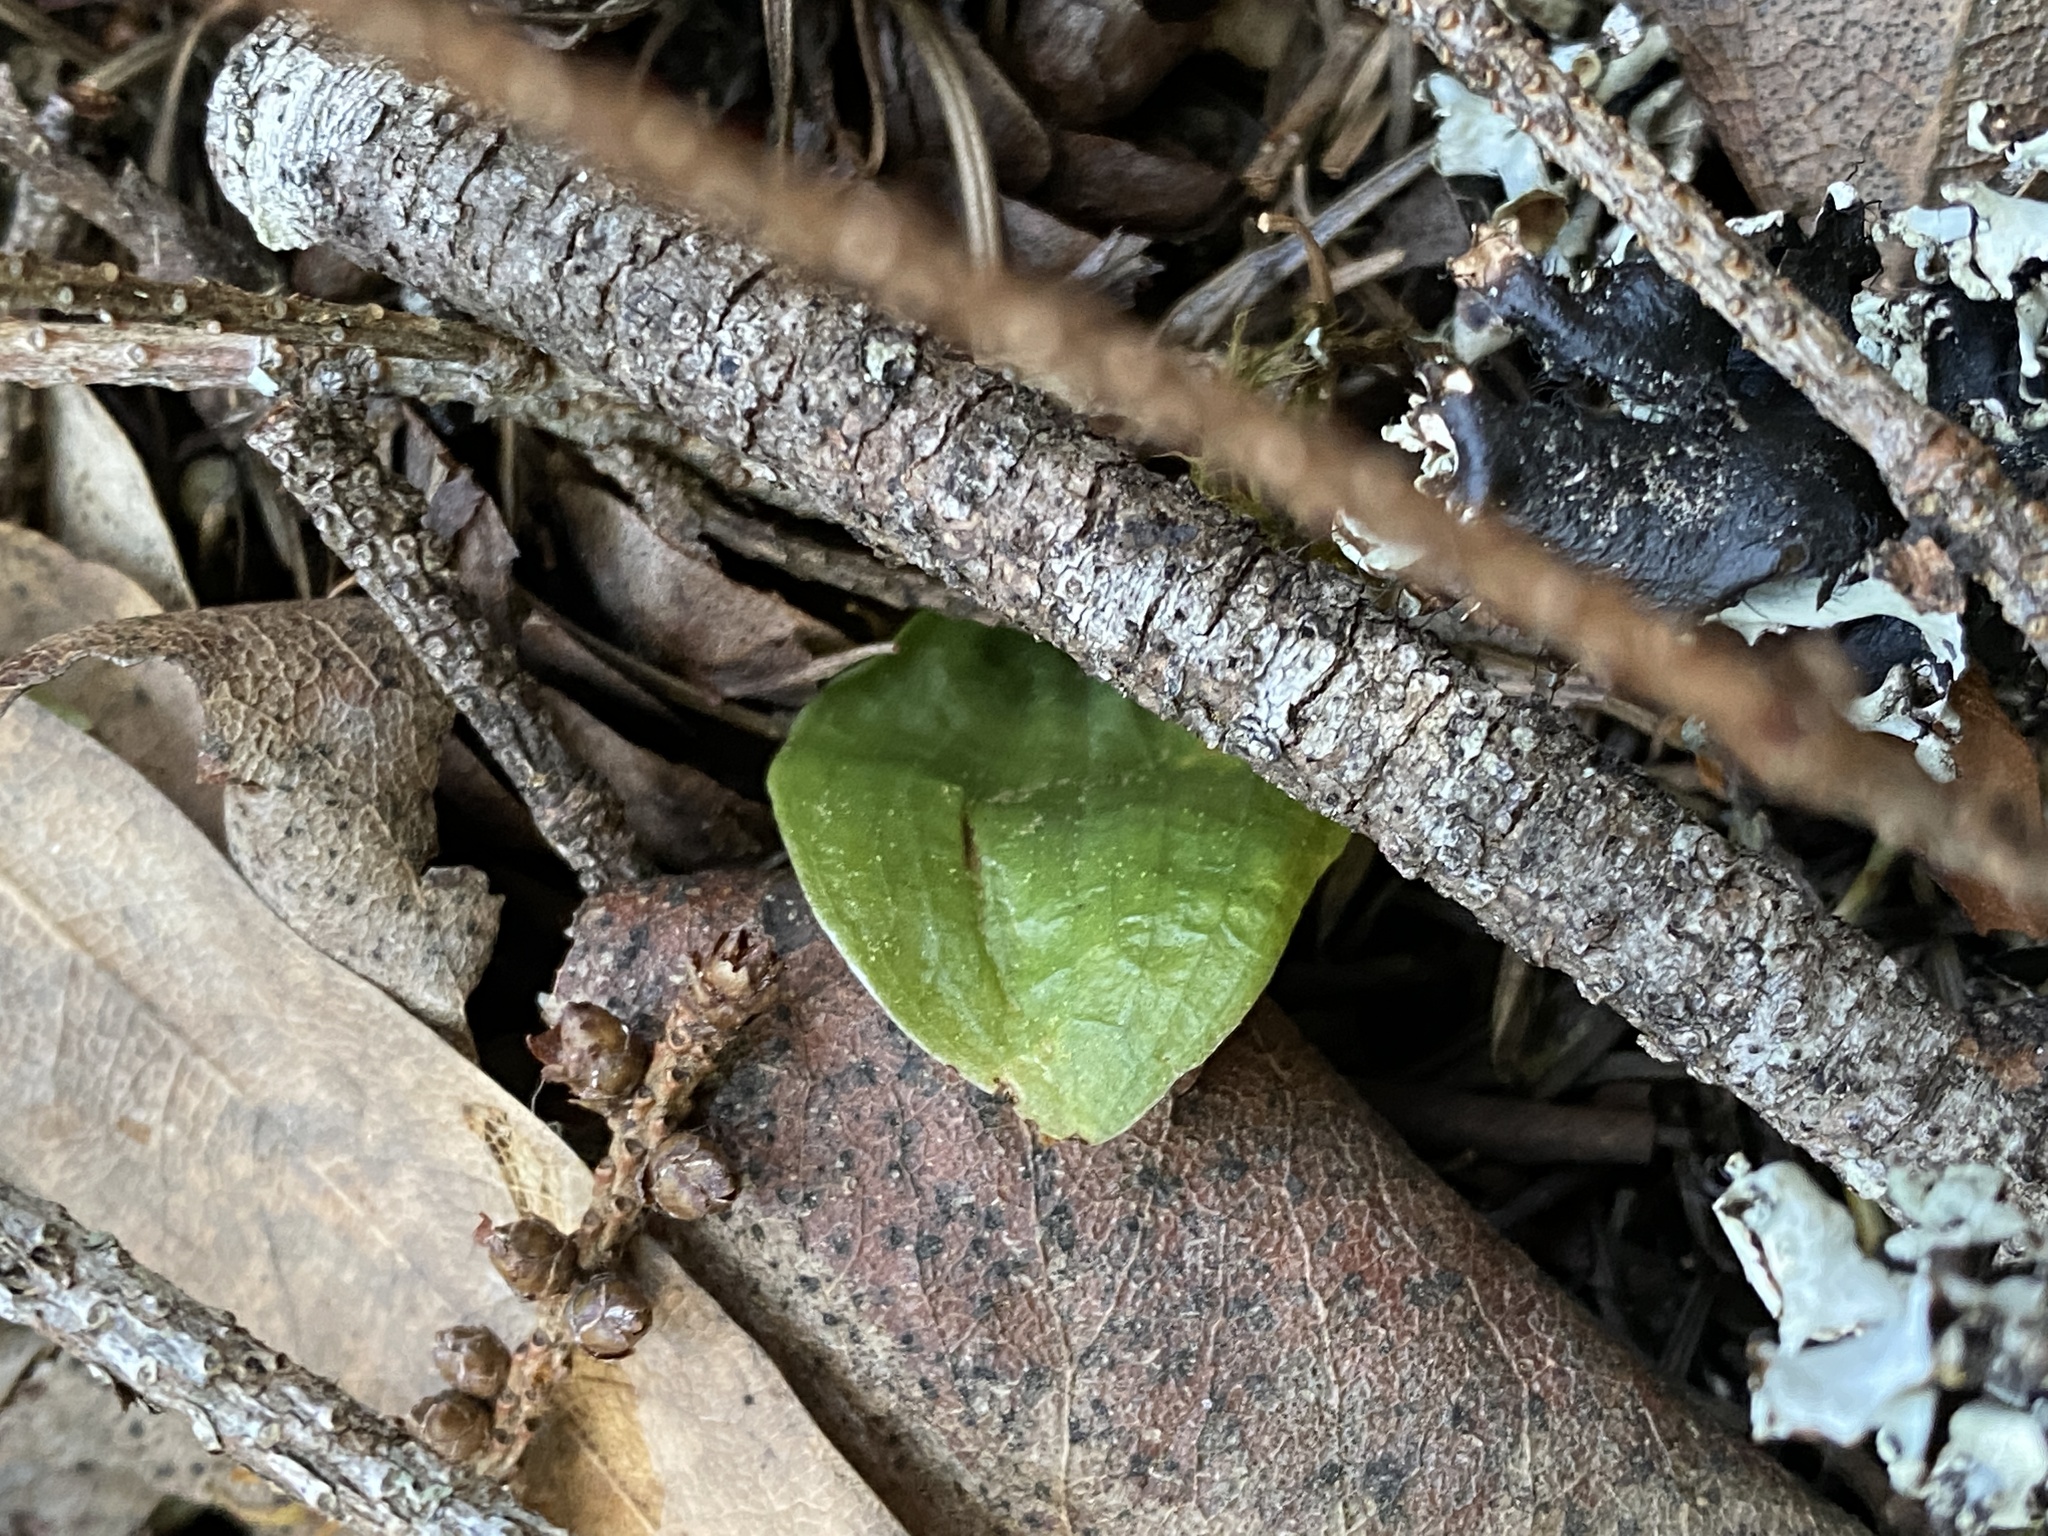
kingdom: Plantae
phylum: Tracheophyta
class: Liliopsida
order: Asparagales
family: Orchidaceae
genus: Calypso
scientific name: Calypso bulbosa
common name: Calypso
